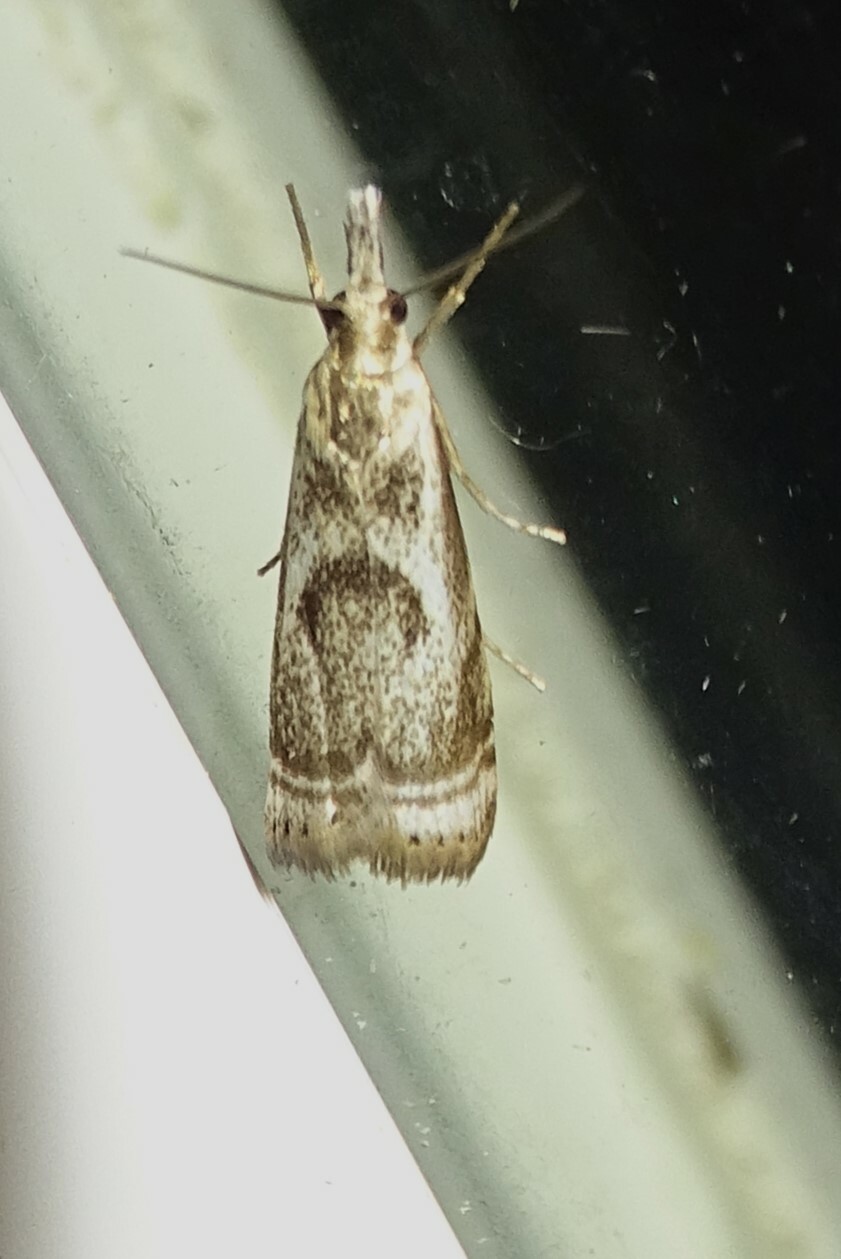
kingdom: Animalia
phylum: Arthropoda
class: Insecta
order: Lepidoptera
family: Crambidae
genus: Microcrambus
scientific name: Microcrambus elegans
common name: Elegant grass-veneer
